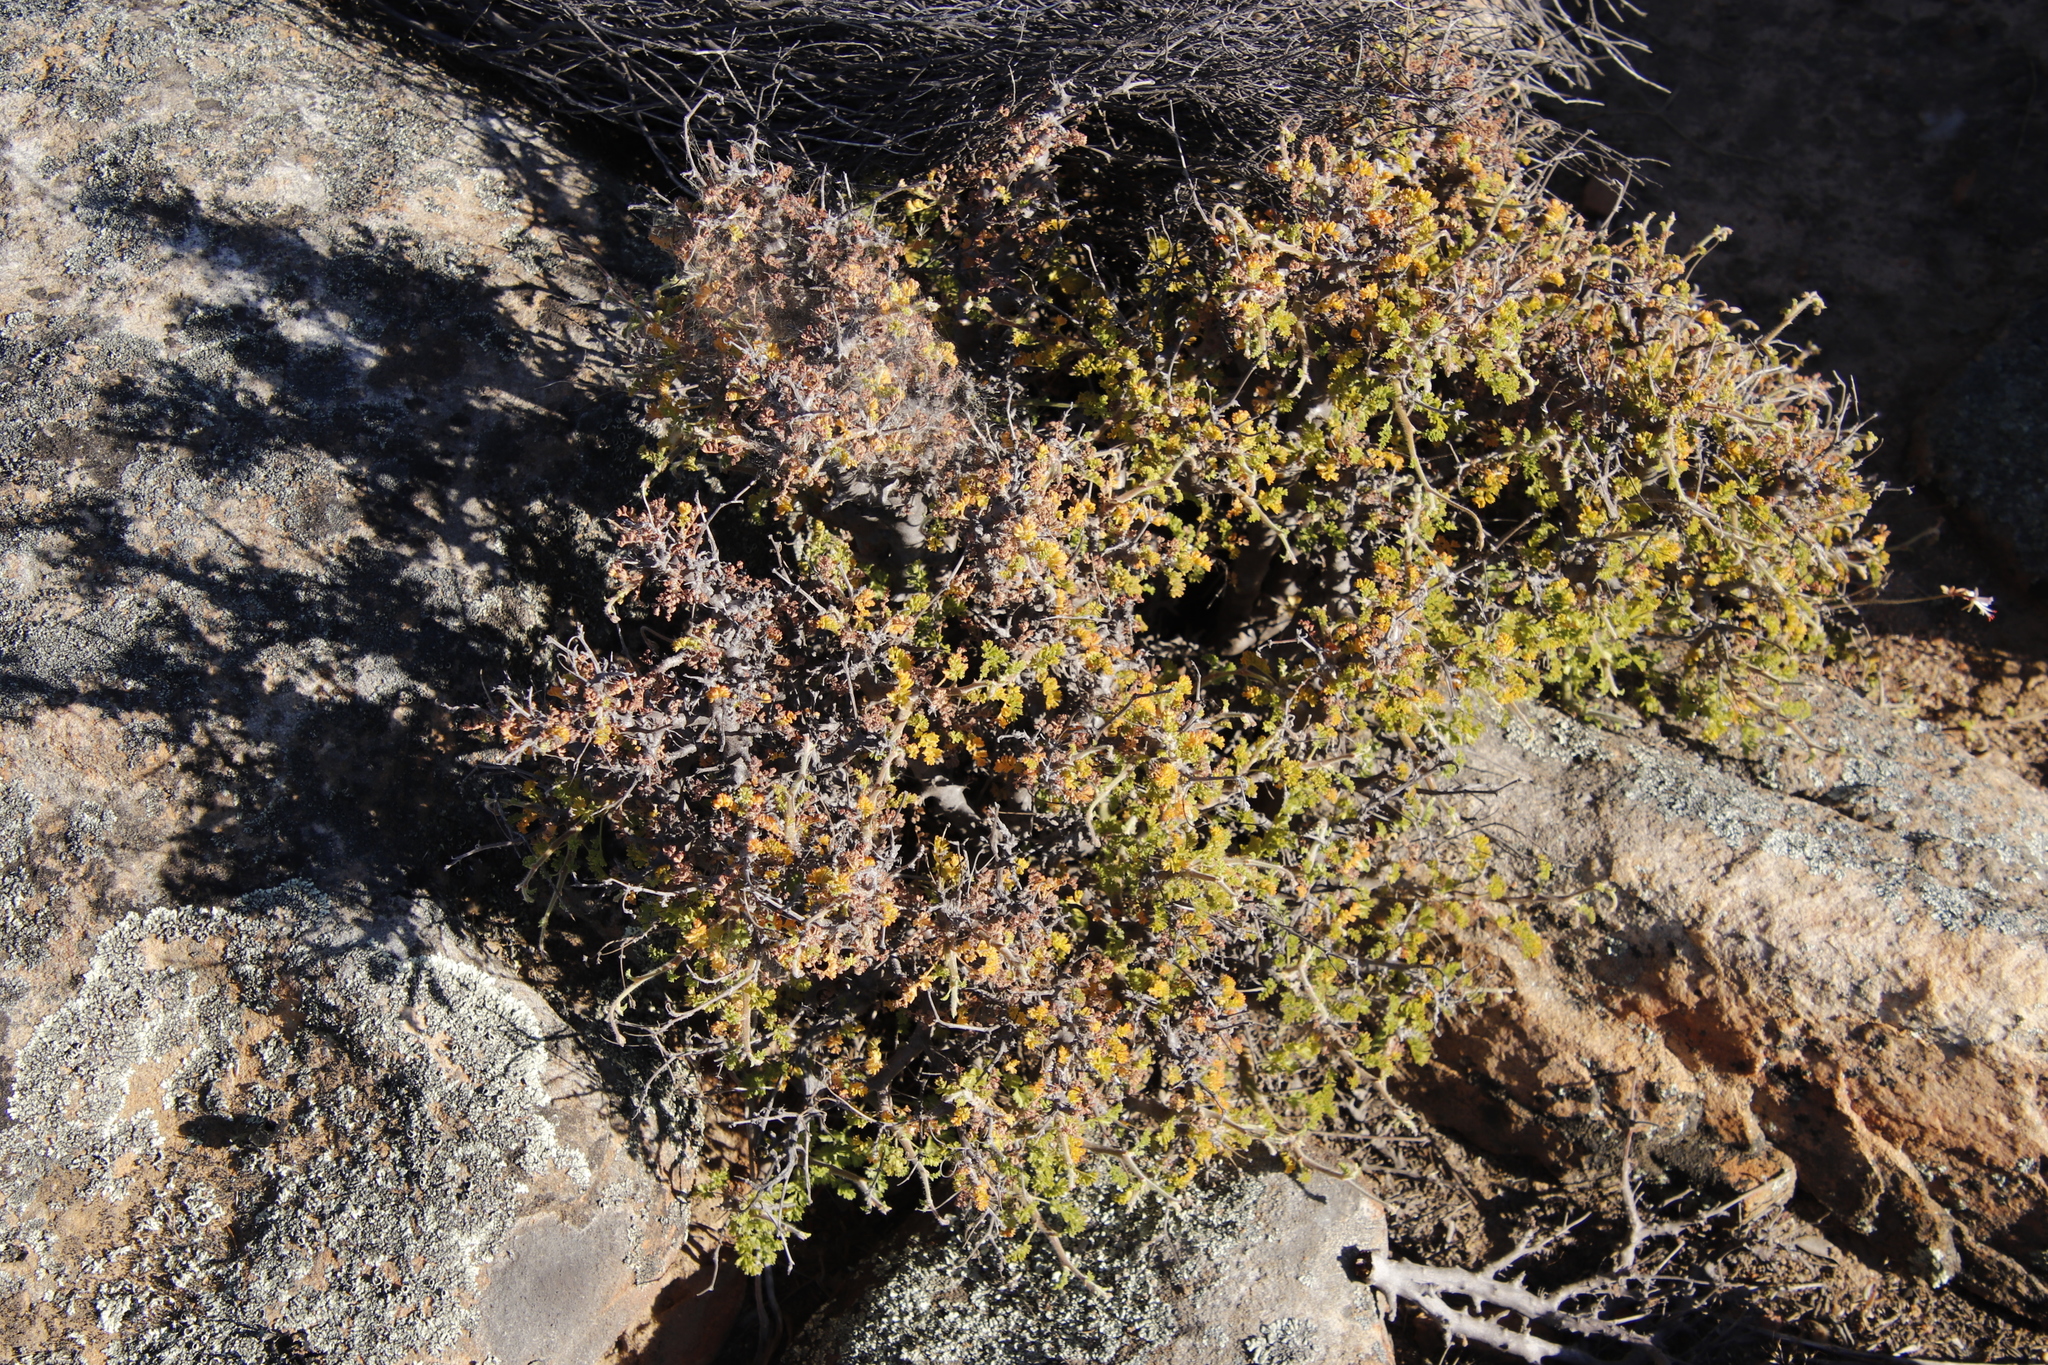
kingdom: Plantae
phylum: Tracheophyta
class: Magnoliopsida
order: Geraniales
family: Geraniaceae
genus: Pelargonium
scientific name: Pelargonium alternans
